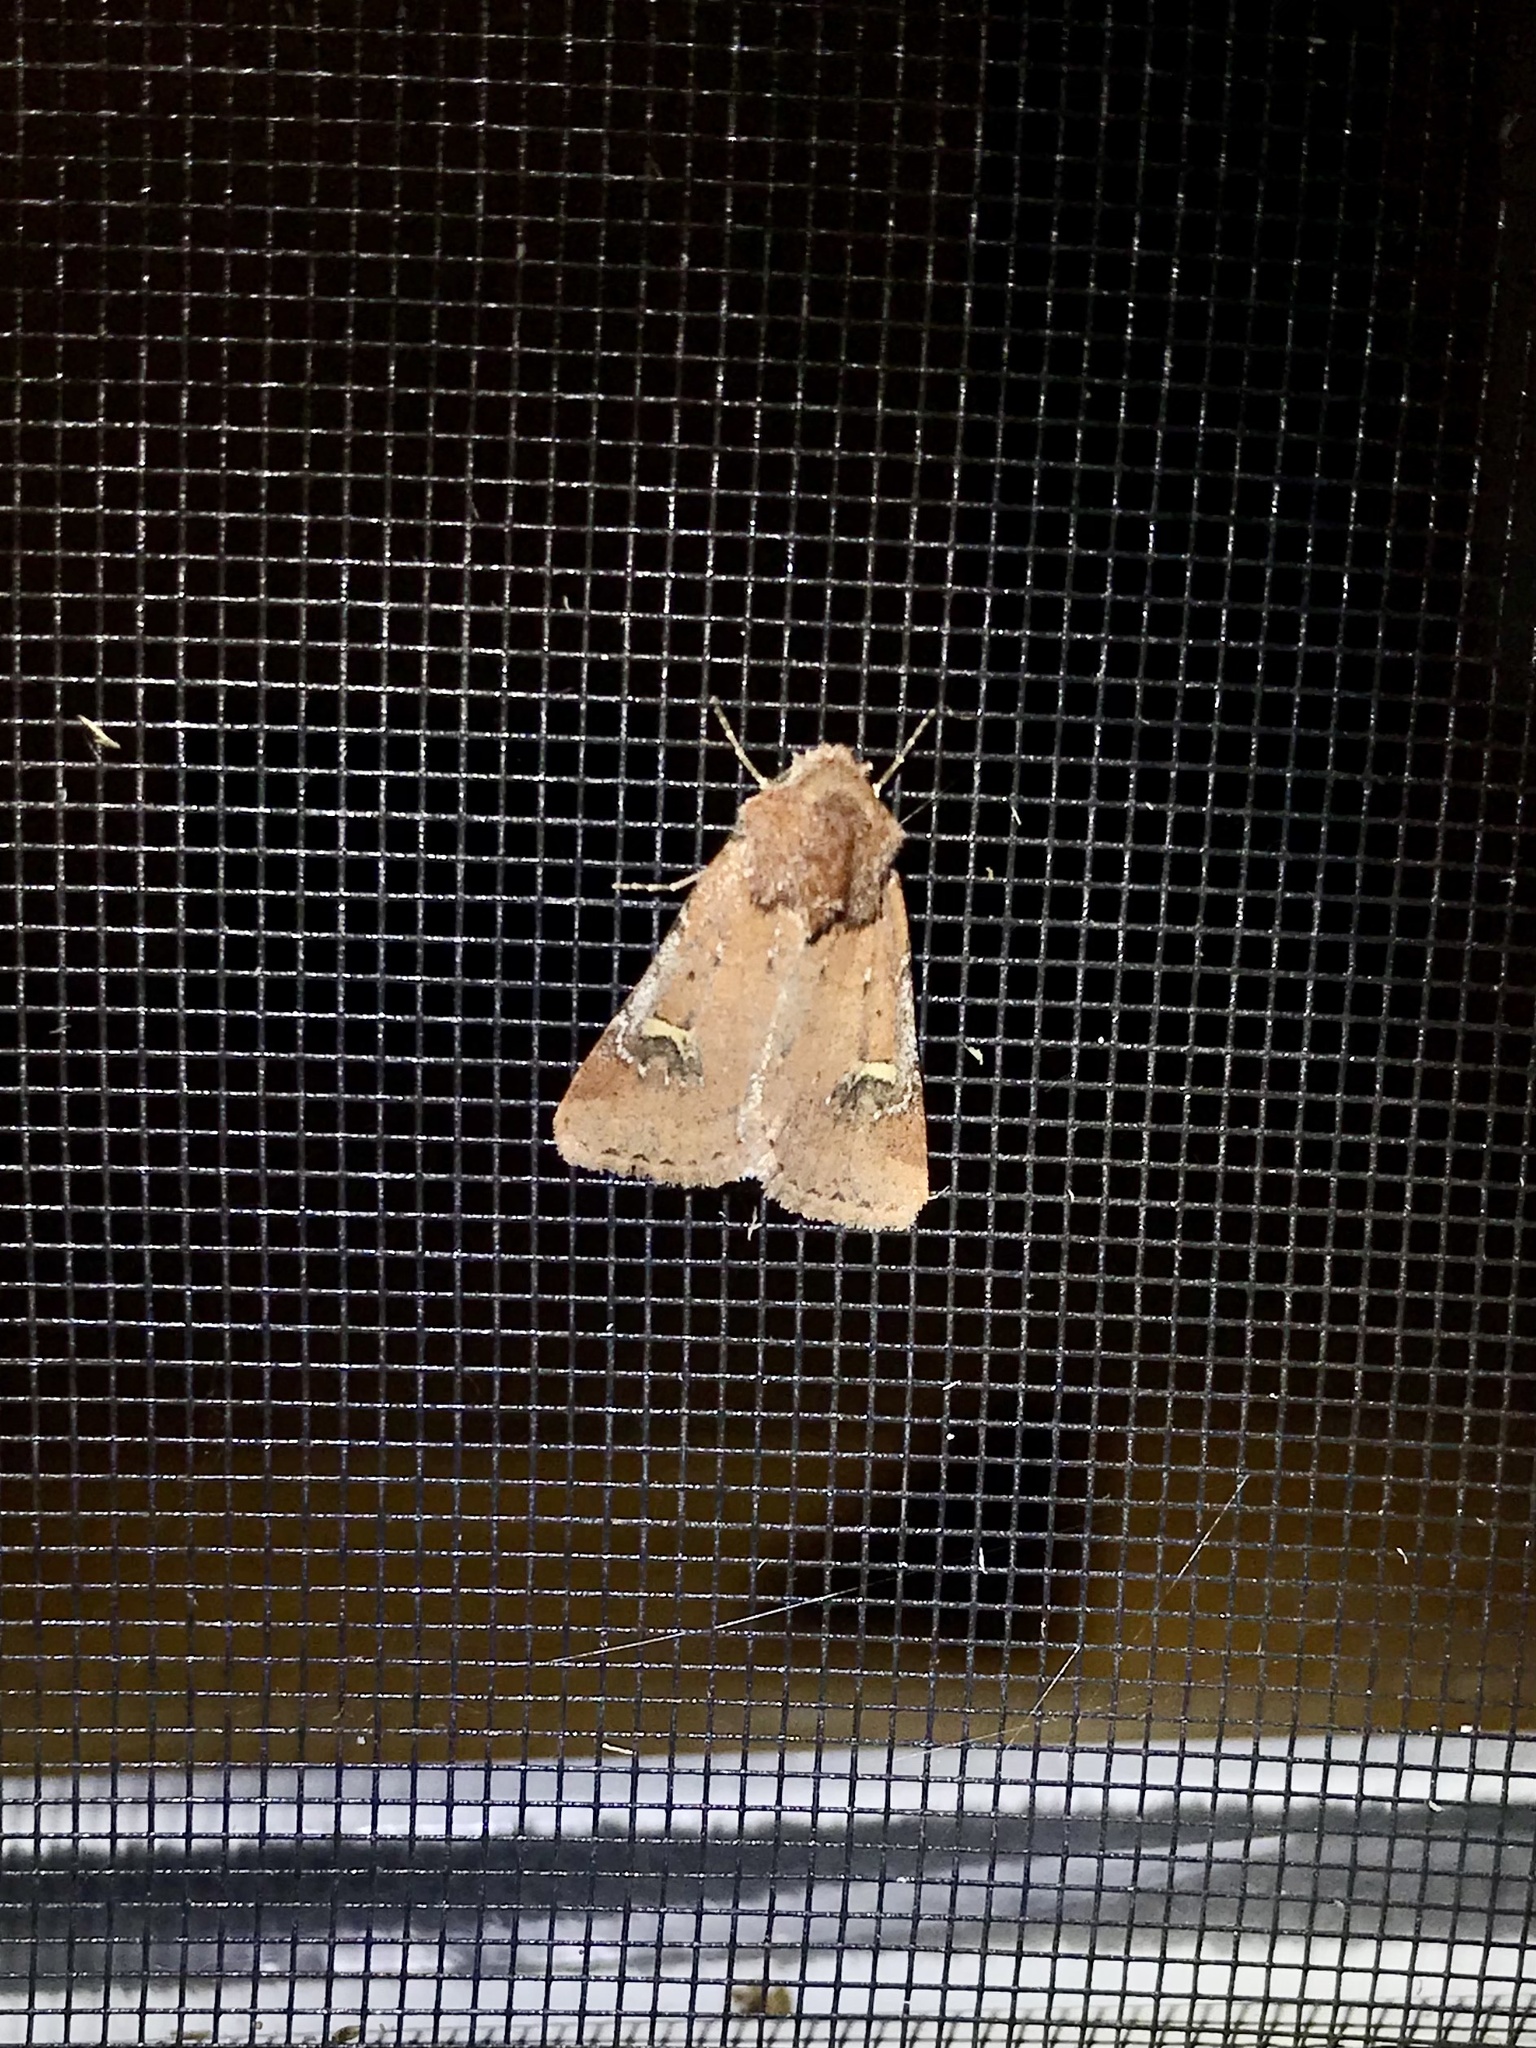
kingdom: Animalia
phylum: Arthropoda
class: Insecta
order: Lepidoptera
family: Noctuidae
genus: Eucoptocnemis
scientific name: Eucoptocnemis fimbriaris
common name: Fringed dart
